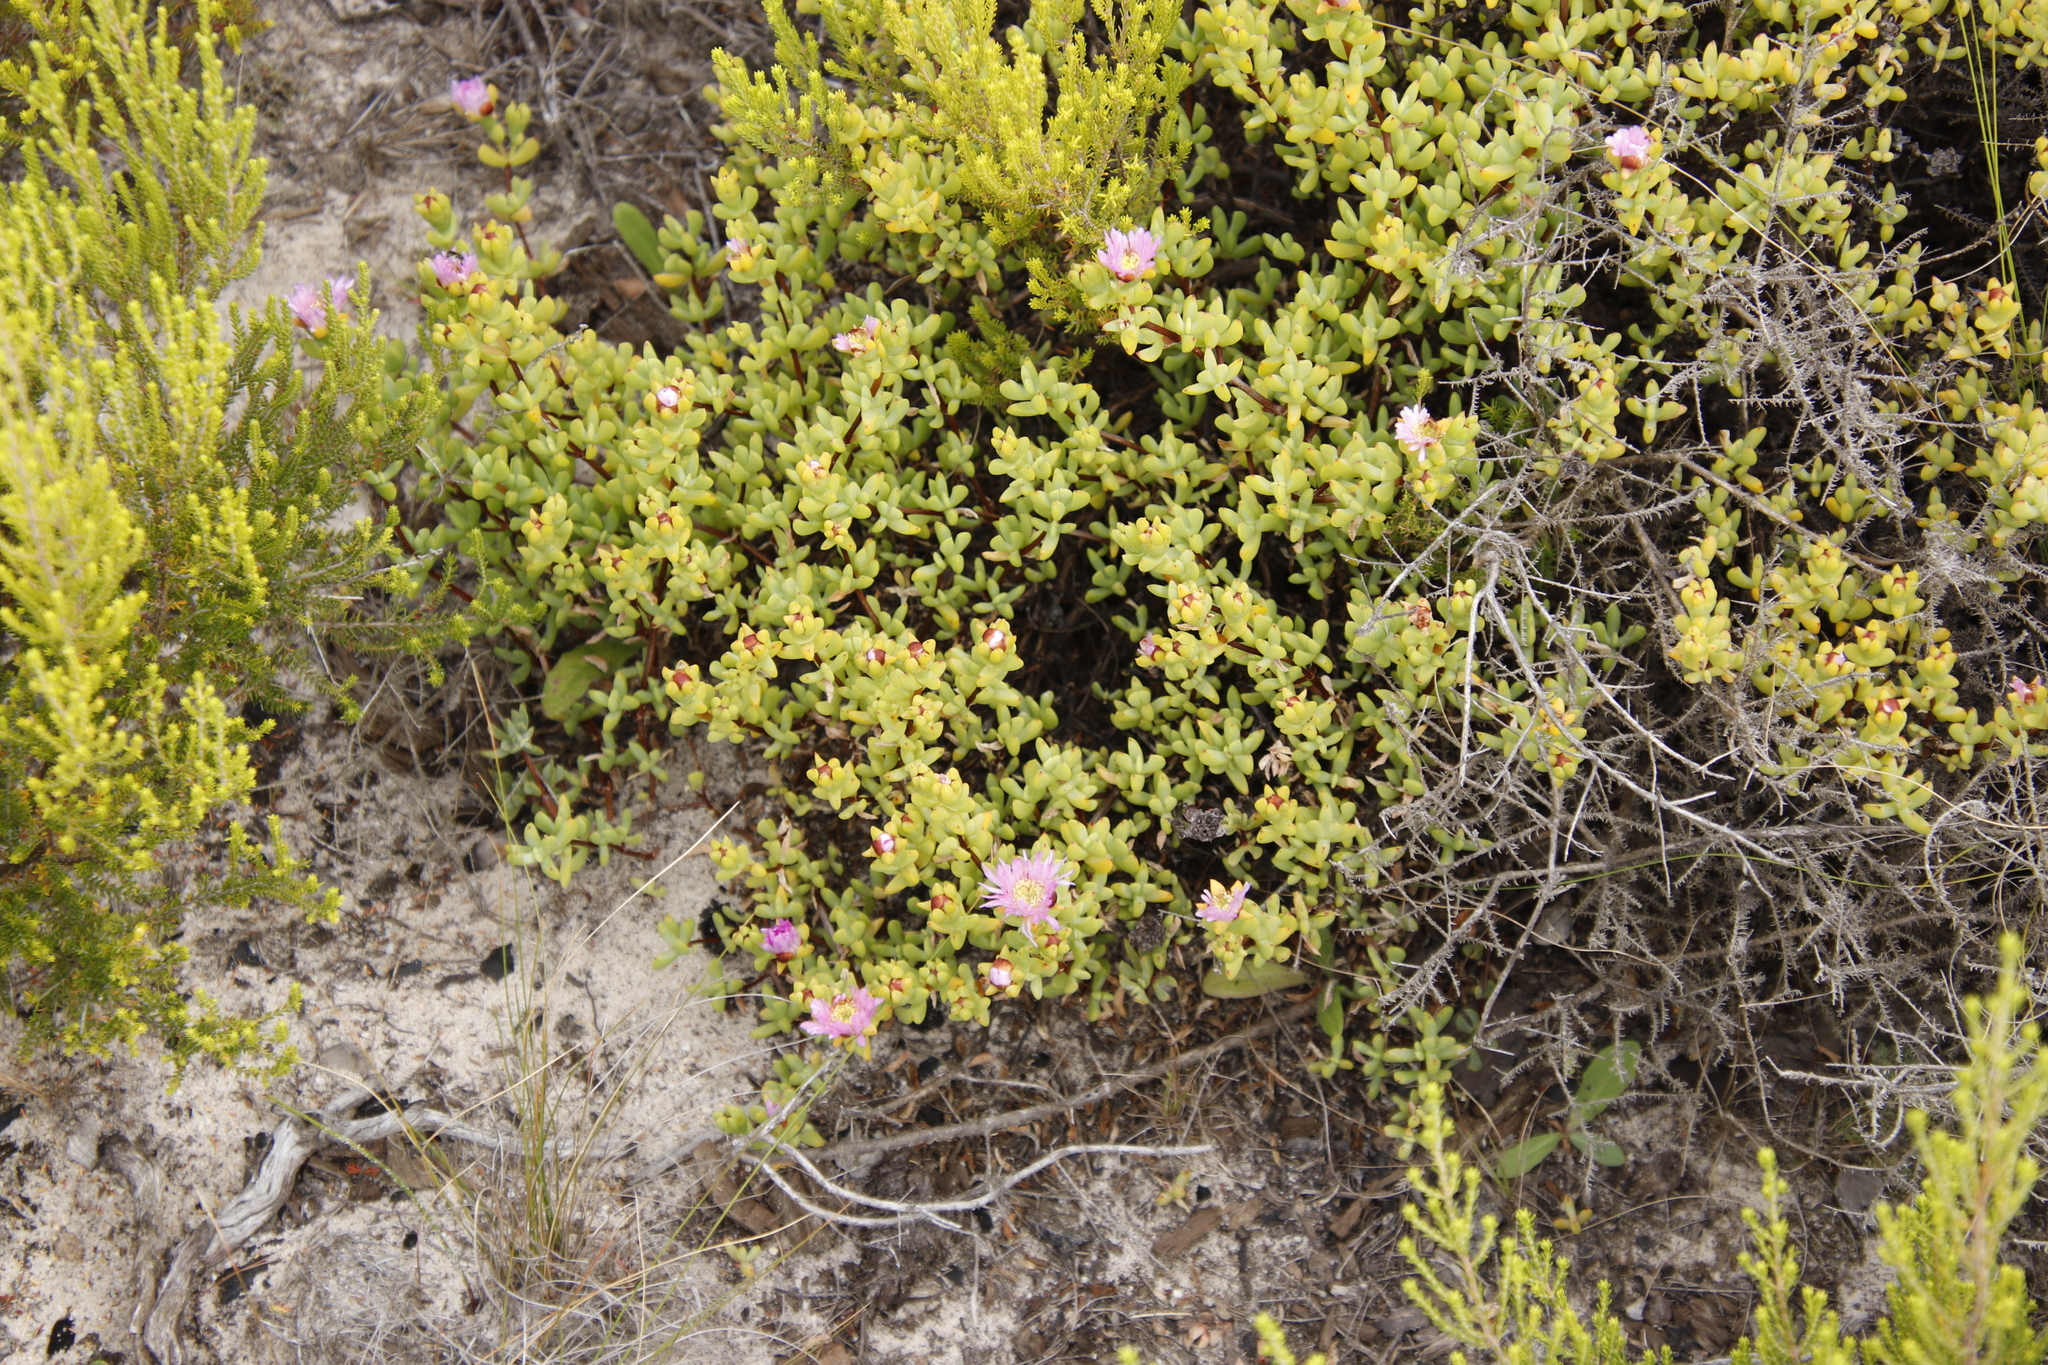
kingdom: Plantae
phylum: Tracheophyta
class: Magnoliopsida
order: Caryophyllales
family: Aizoaceae
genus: Oscularia
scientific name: Oscularia falciformis
